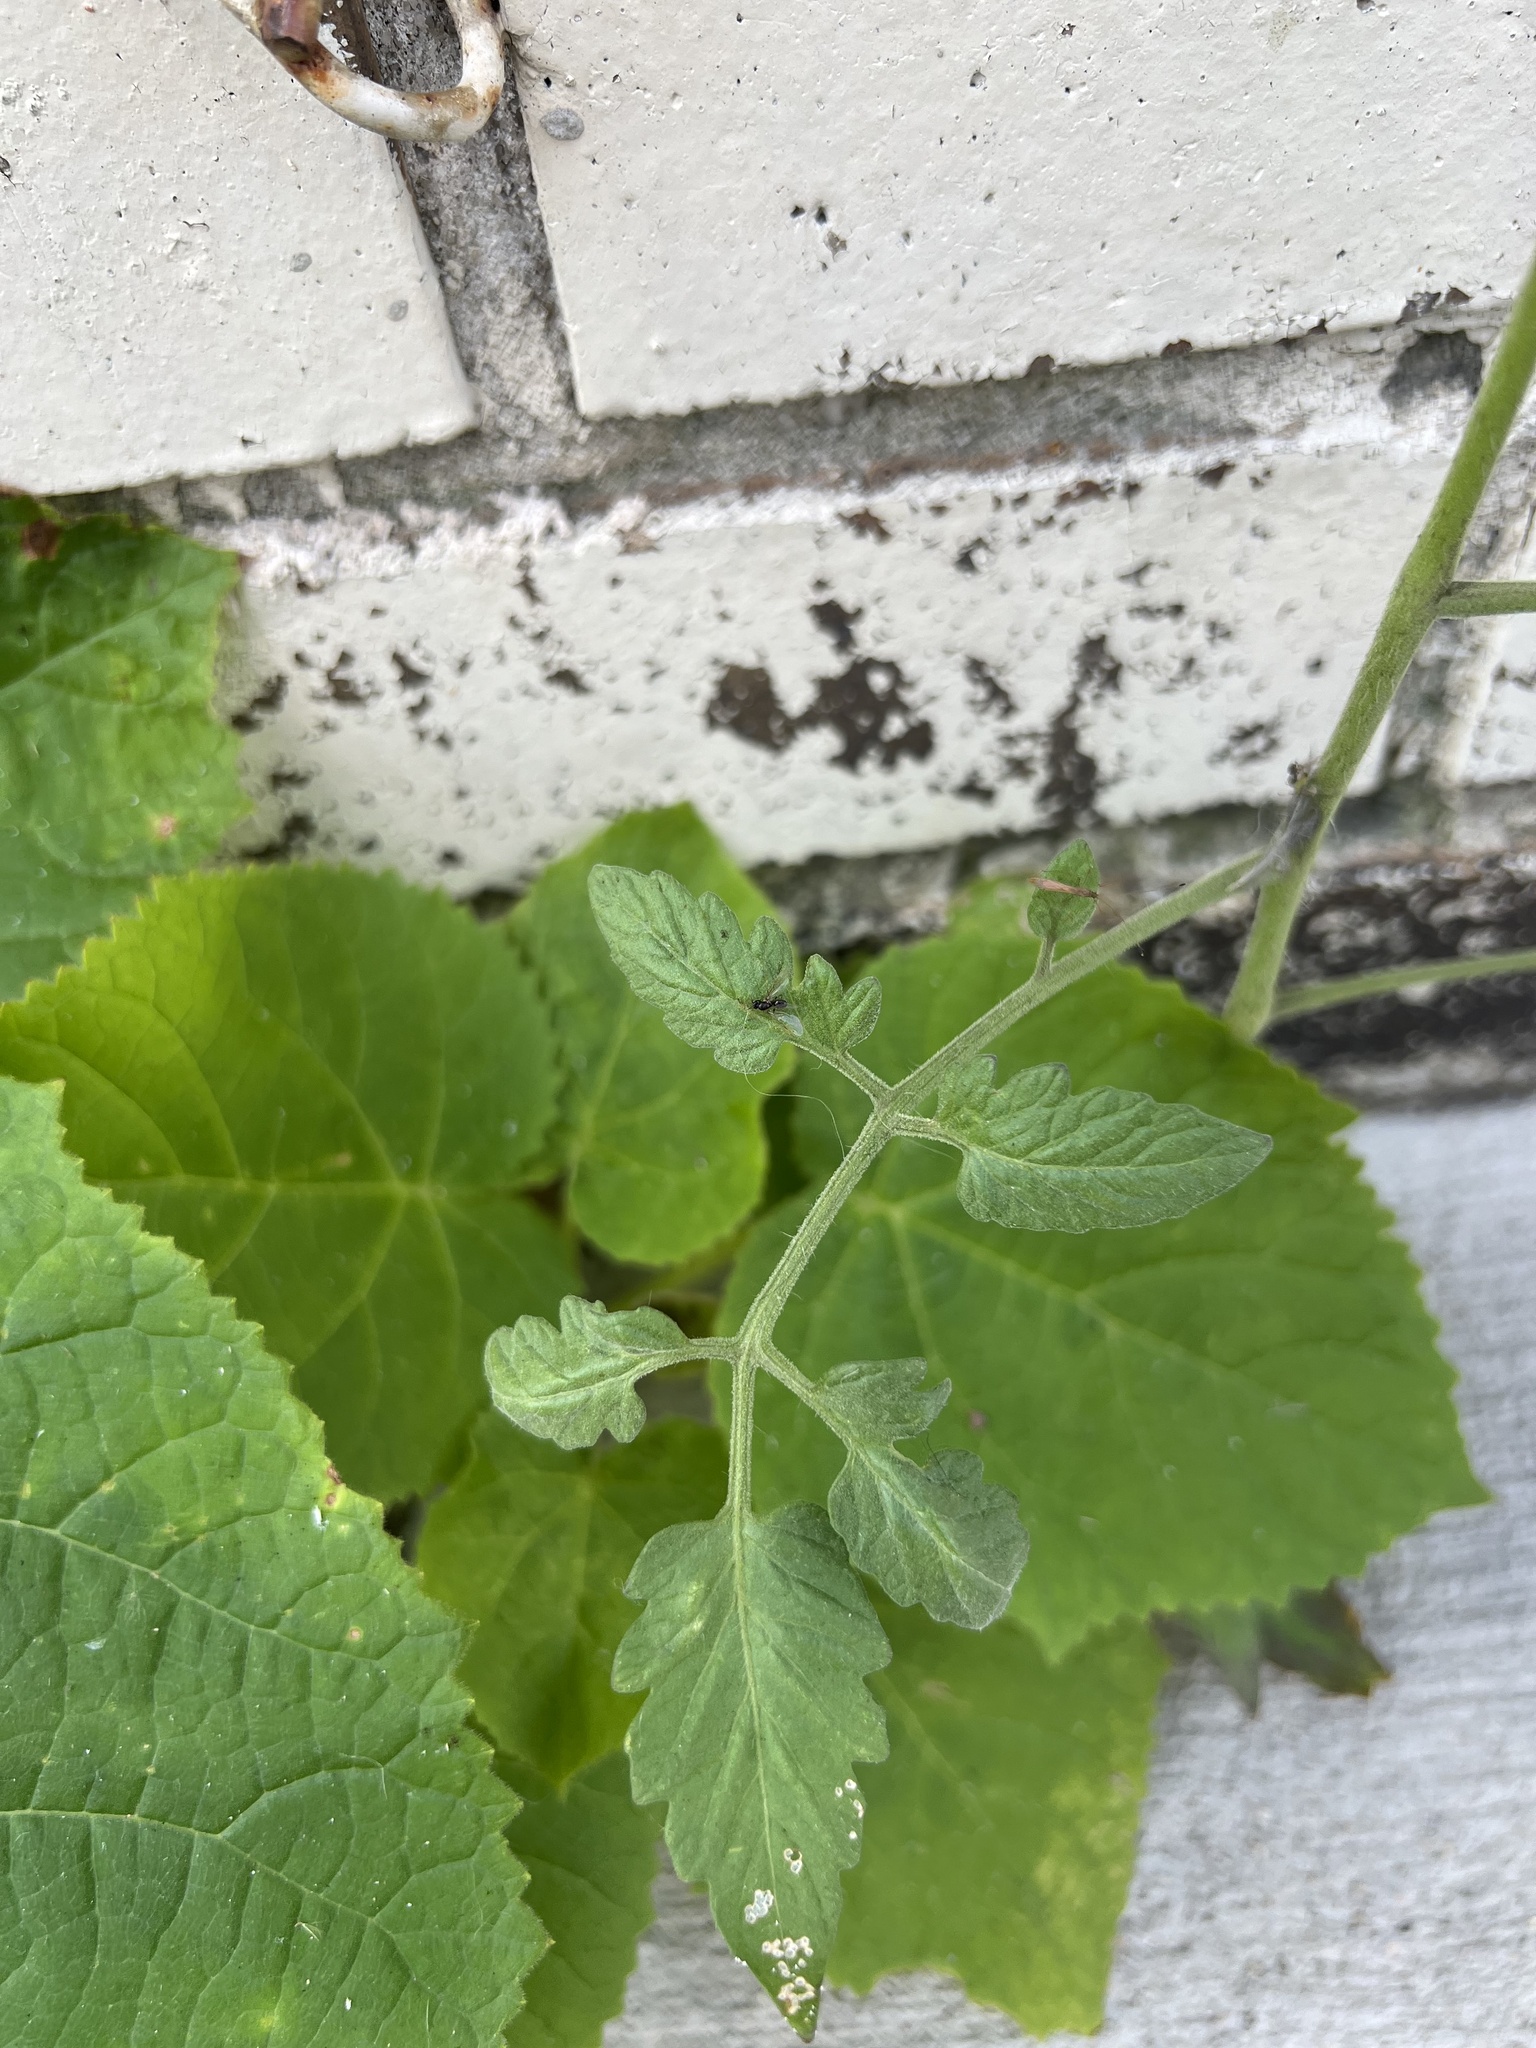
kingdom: Plantae
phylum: Tracheophyta
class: Magnoliopsida
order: Solanales
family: Solanaceae
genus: Solanum
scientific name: Solanum lycopersicum
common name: Garden tomato
